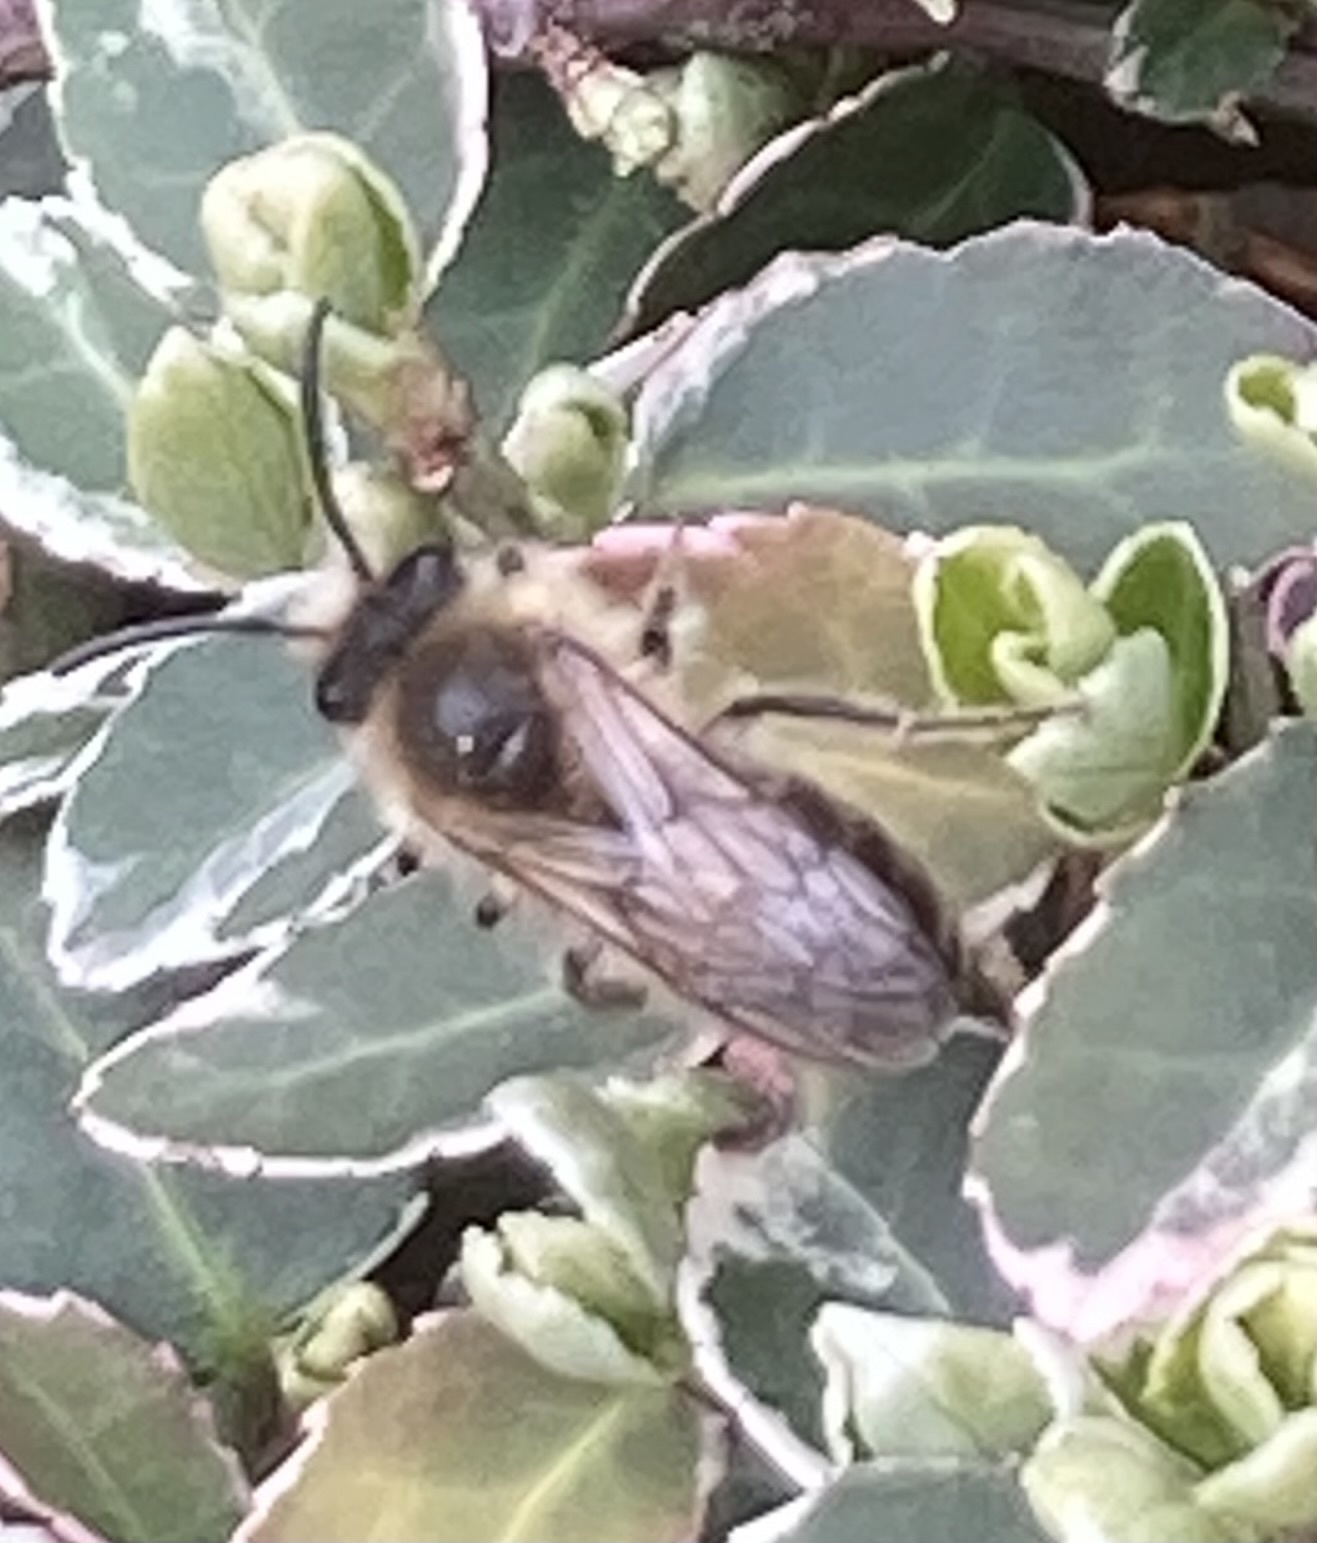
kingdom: Animalia
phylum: Arthropoda
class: Insecta
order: Hymenoptera
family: Colletidae
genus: Colletes
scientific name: Colletes cunicularius
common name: Early colletes
